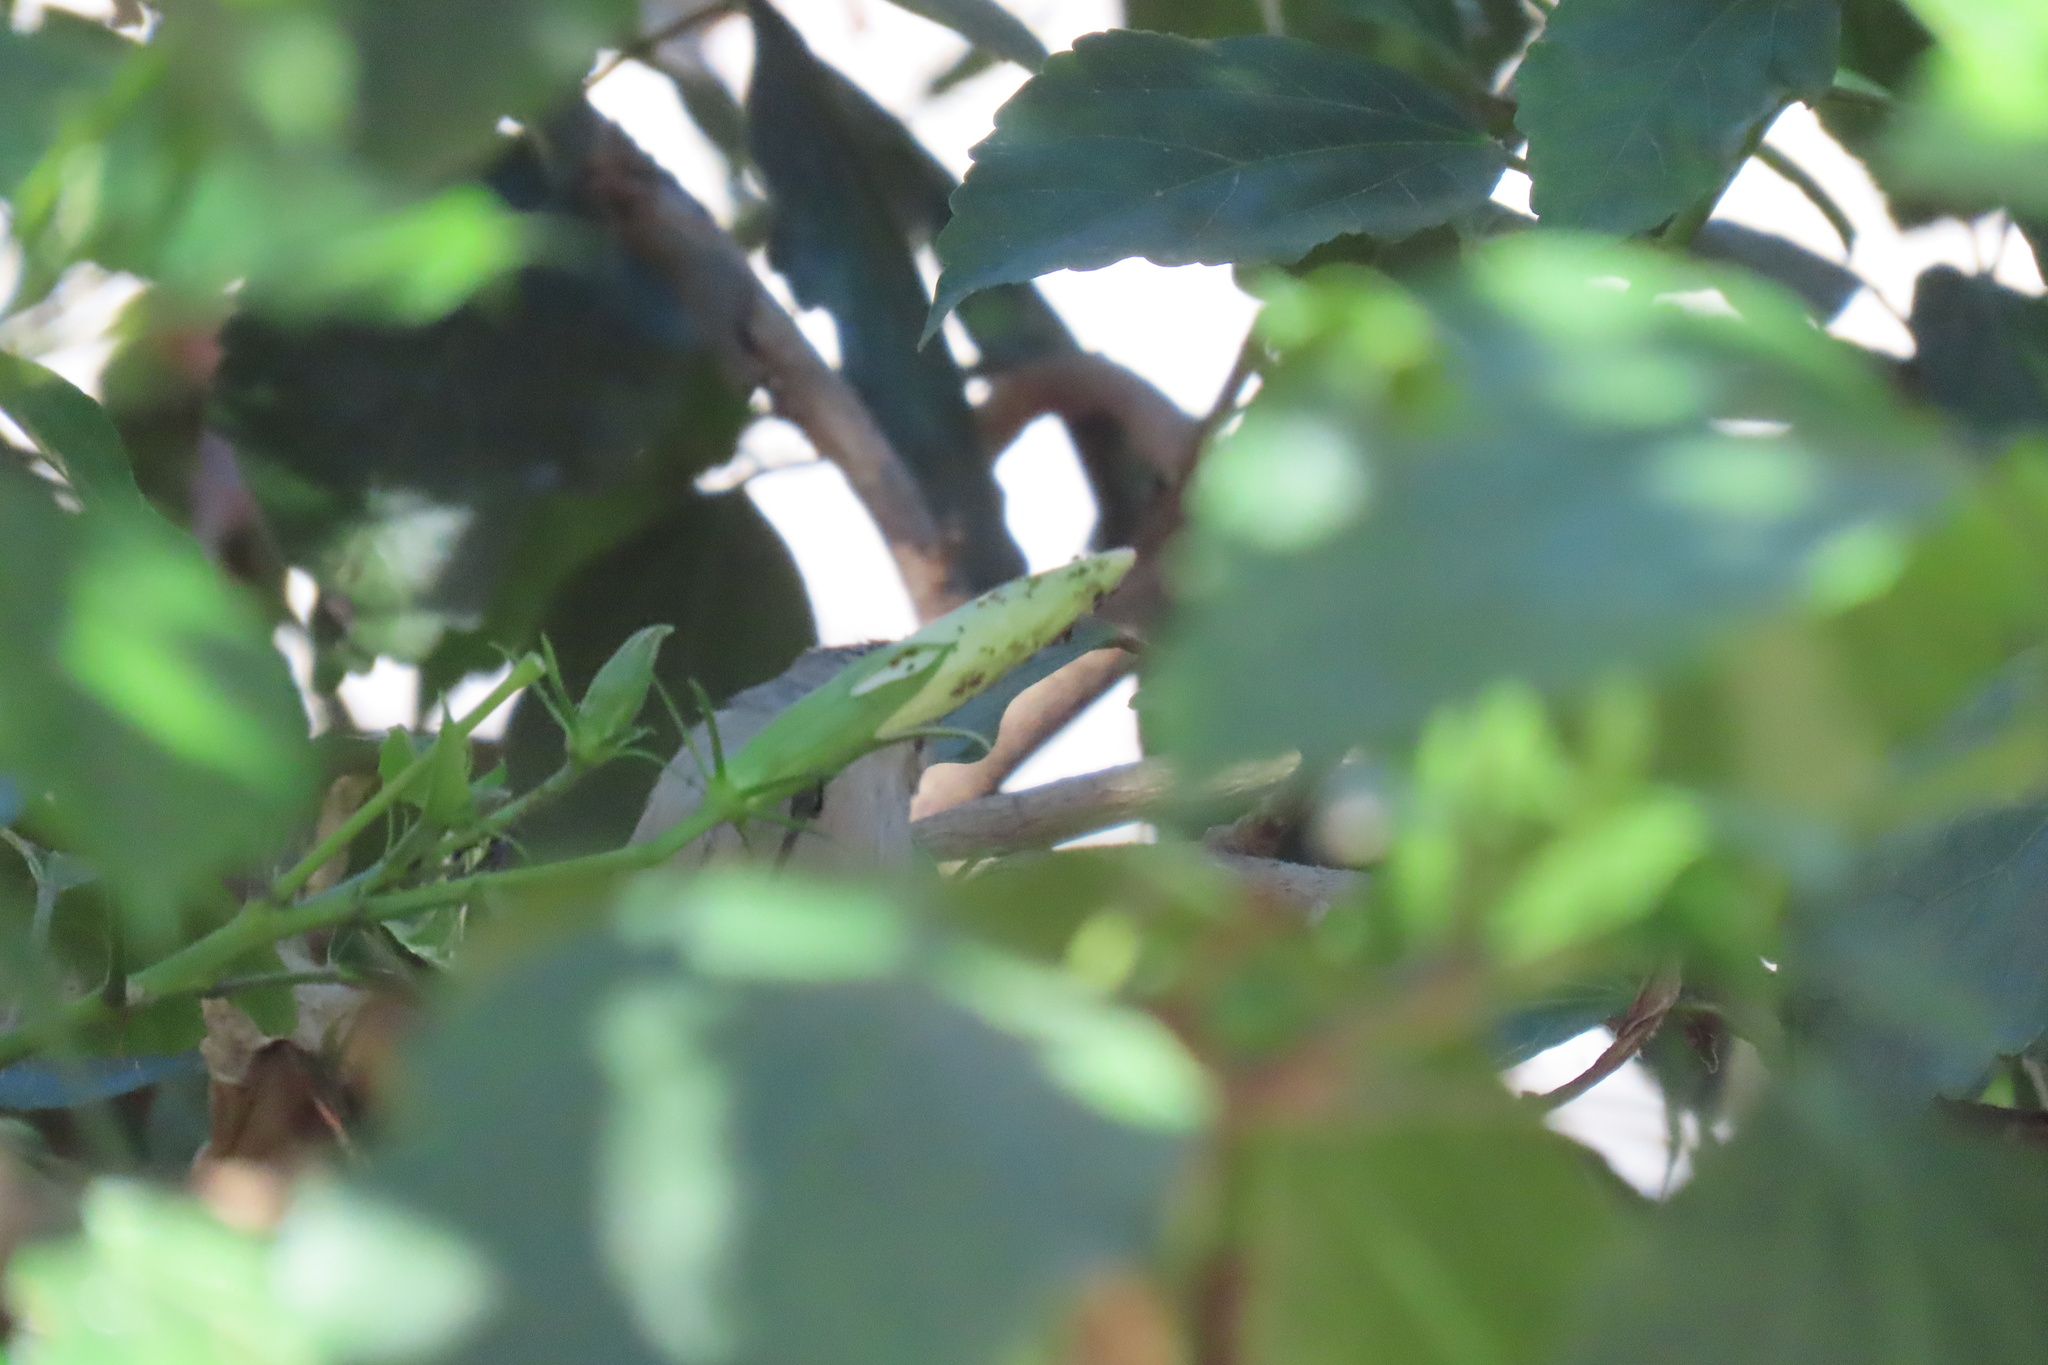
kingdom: Animalia
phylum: Chordata
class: Aves
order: Passeriformes
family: Aegithalidae
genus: Psaltriparus
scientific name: Psaltriparus minimus
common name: American bushtit
